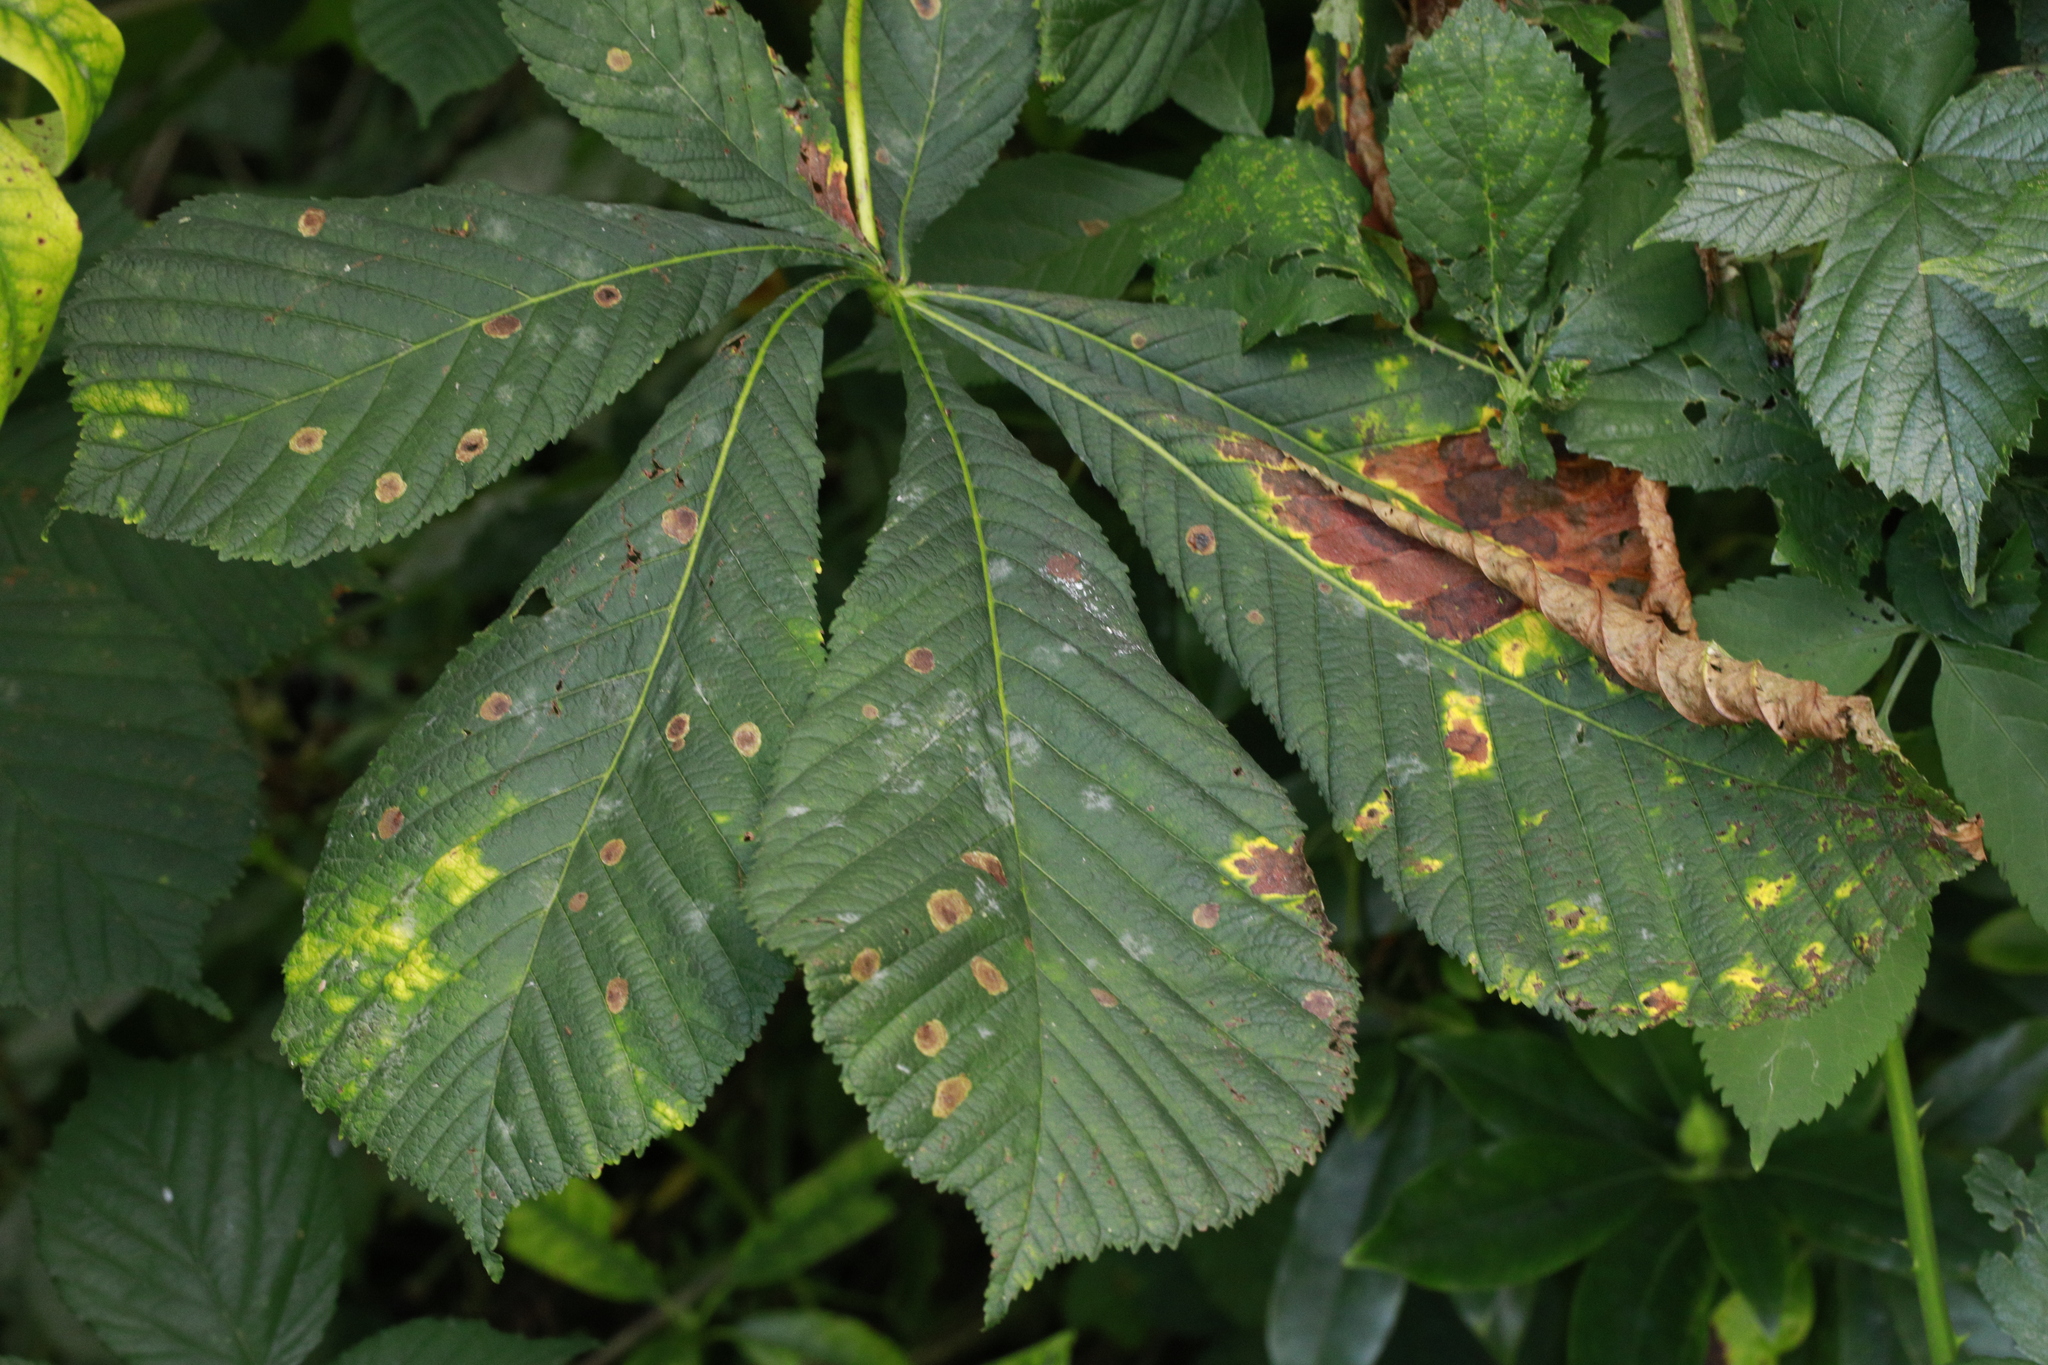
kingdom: Fungi
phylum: Ascomycota
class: Dothideomycetes
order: Botryosphaeriales
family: Phyllostictaceae
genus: Phyllosticta
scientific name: Phyllosticta paviae
